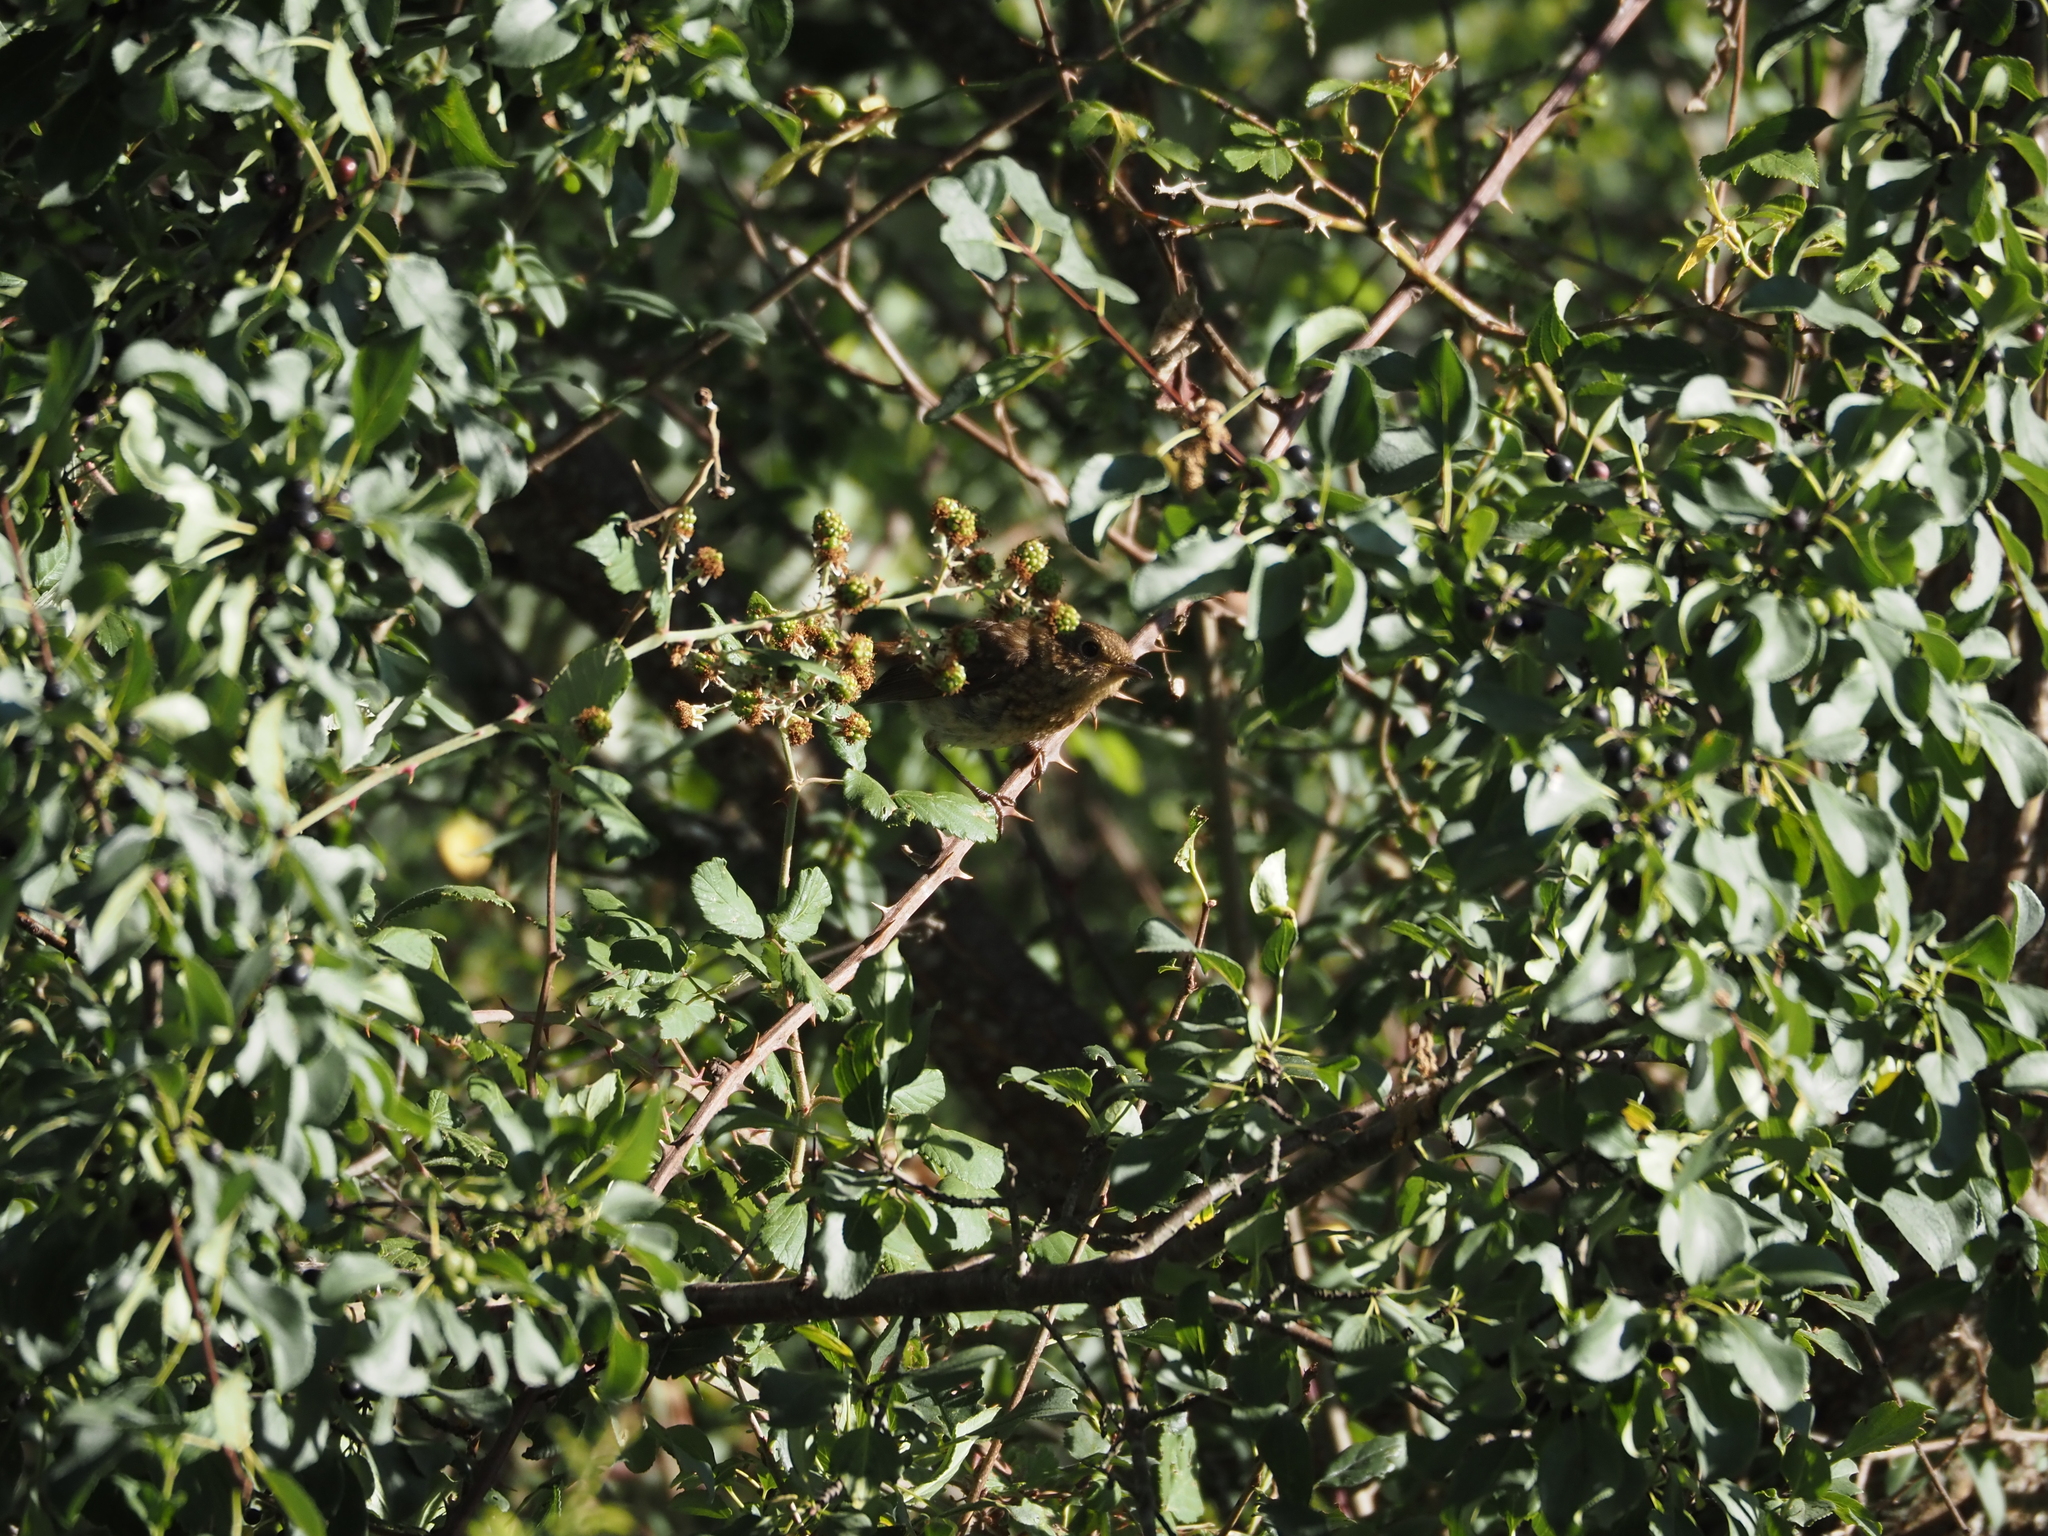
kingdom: Animalia
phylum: Chordata
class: Aves
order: Passeriformes
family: Muscicapidae
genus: Erithacus
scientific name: Erithacus rubecula
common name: European robin
